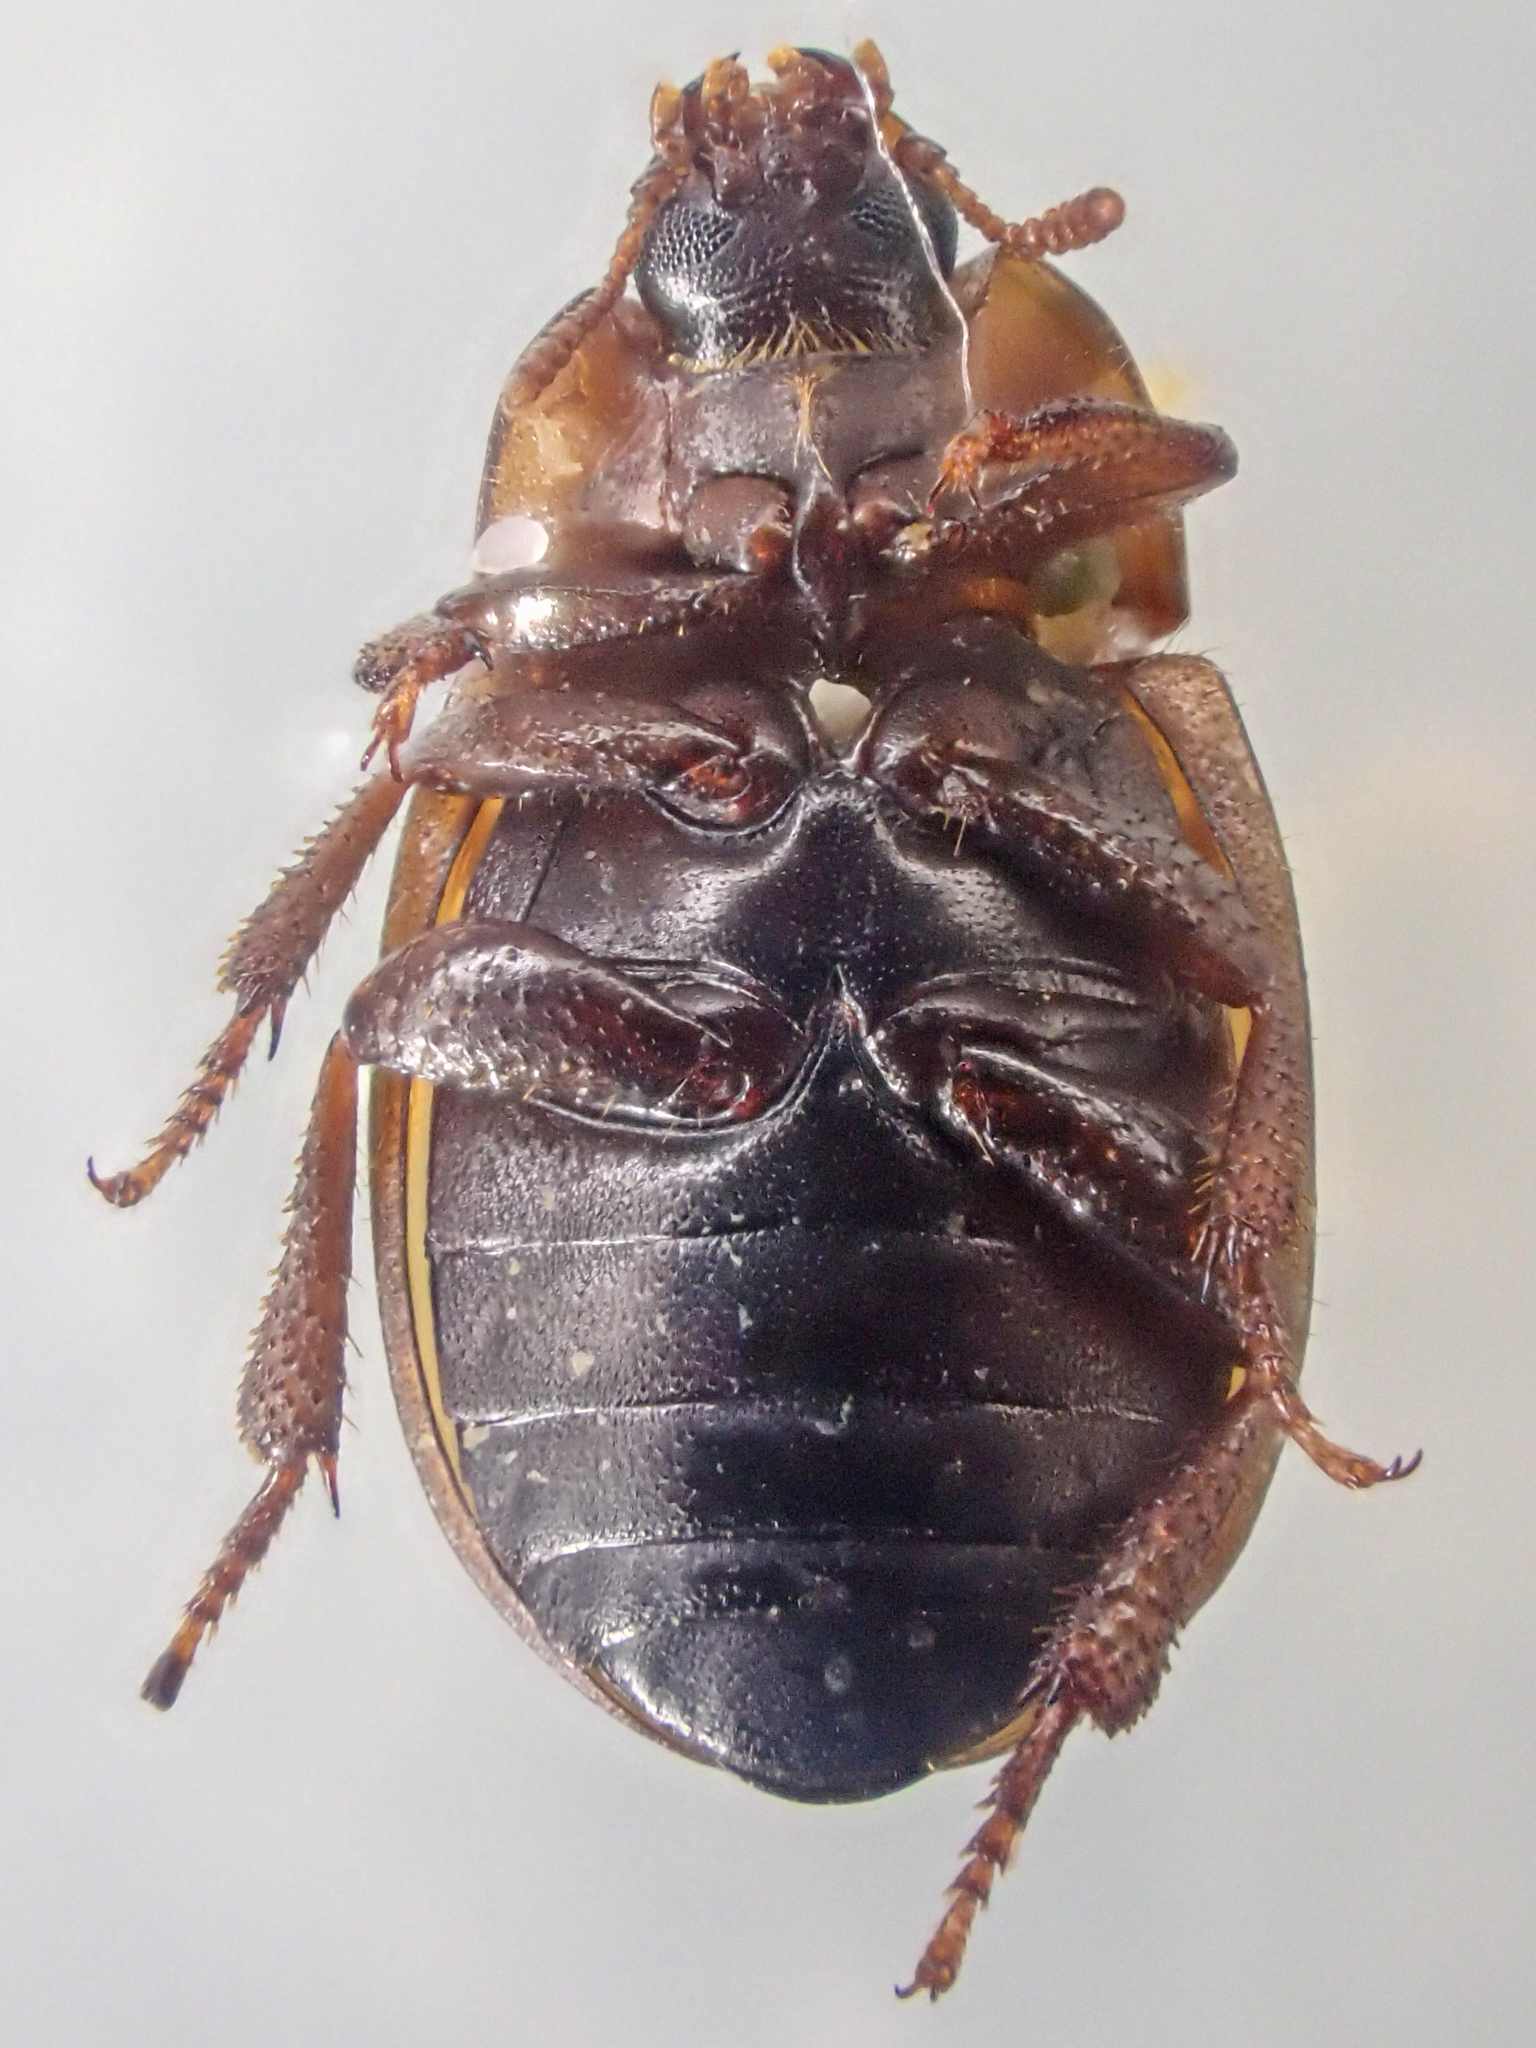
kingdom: Animalia
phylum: Arthropoda
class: Insecta
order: Coleoptera
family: Tenebrionidae
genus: Phaleria
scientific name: Phaleria rotundata
